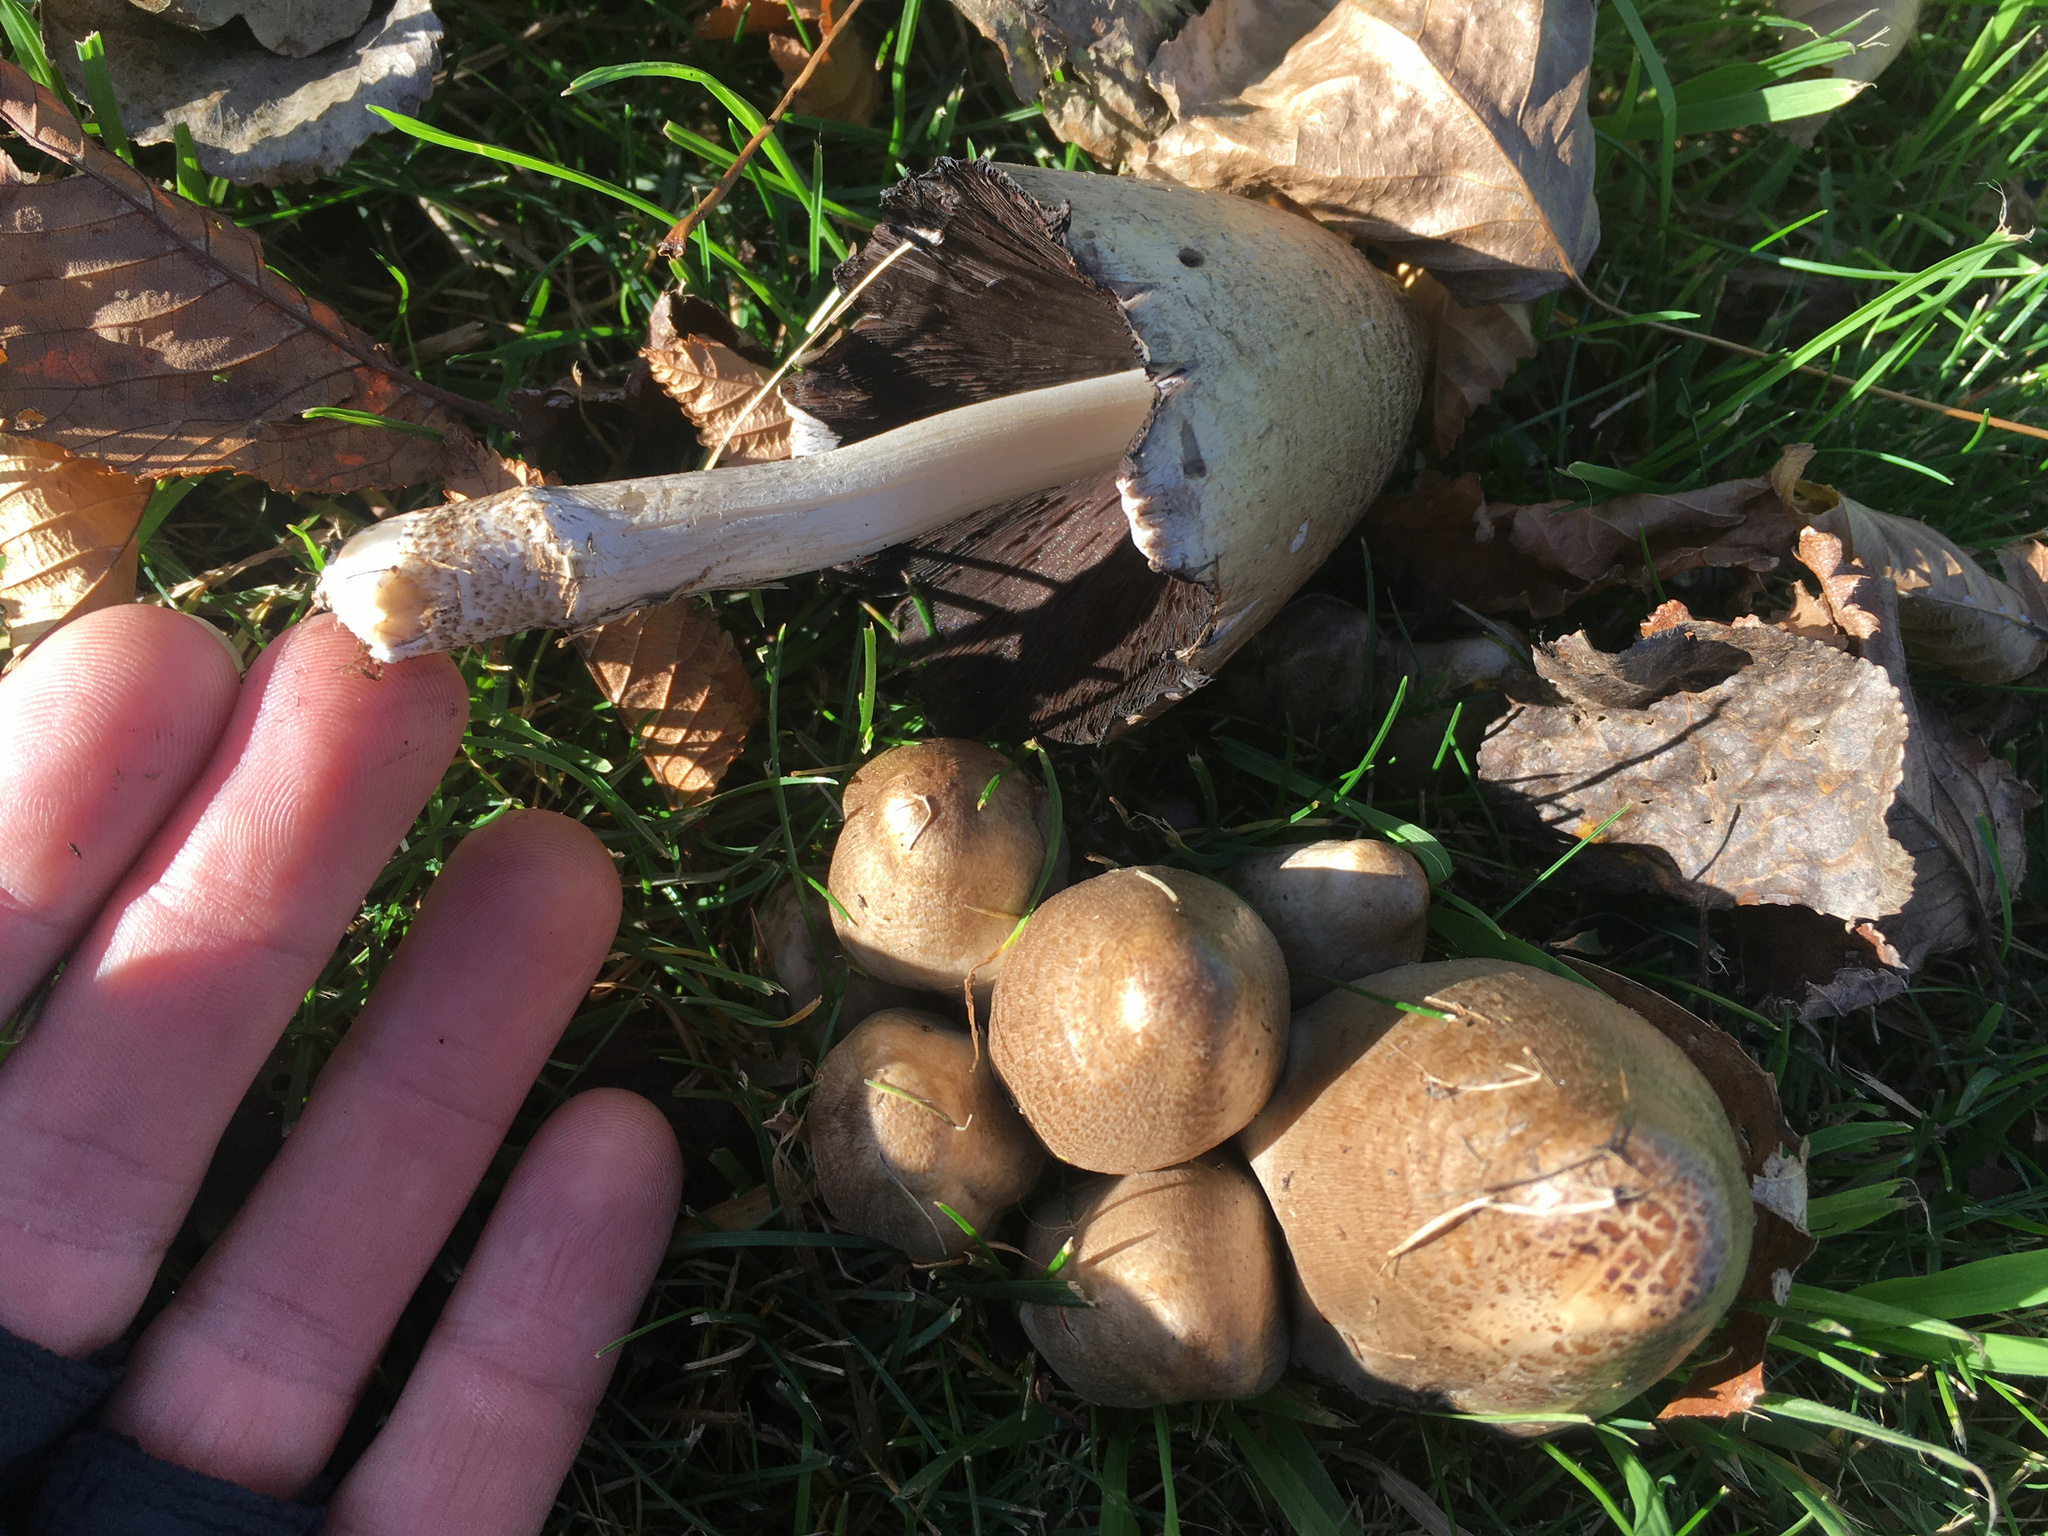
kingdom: Fungi
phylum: Basidiomycota
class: Agaricomycetes
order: Agaricales
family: Psathyrellaceae
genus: Coprinopsis
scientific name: Coprinopsis atramentaria
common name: Common ink-cap
